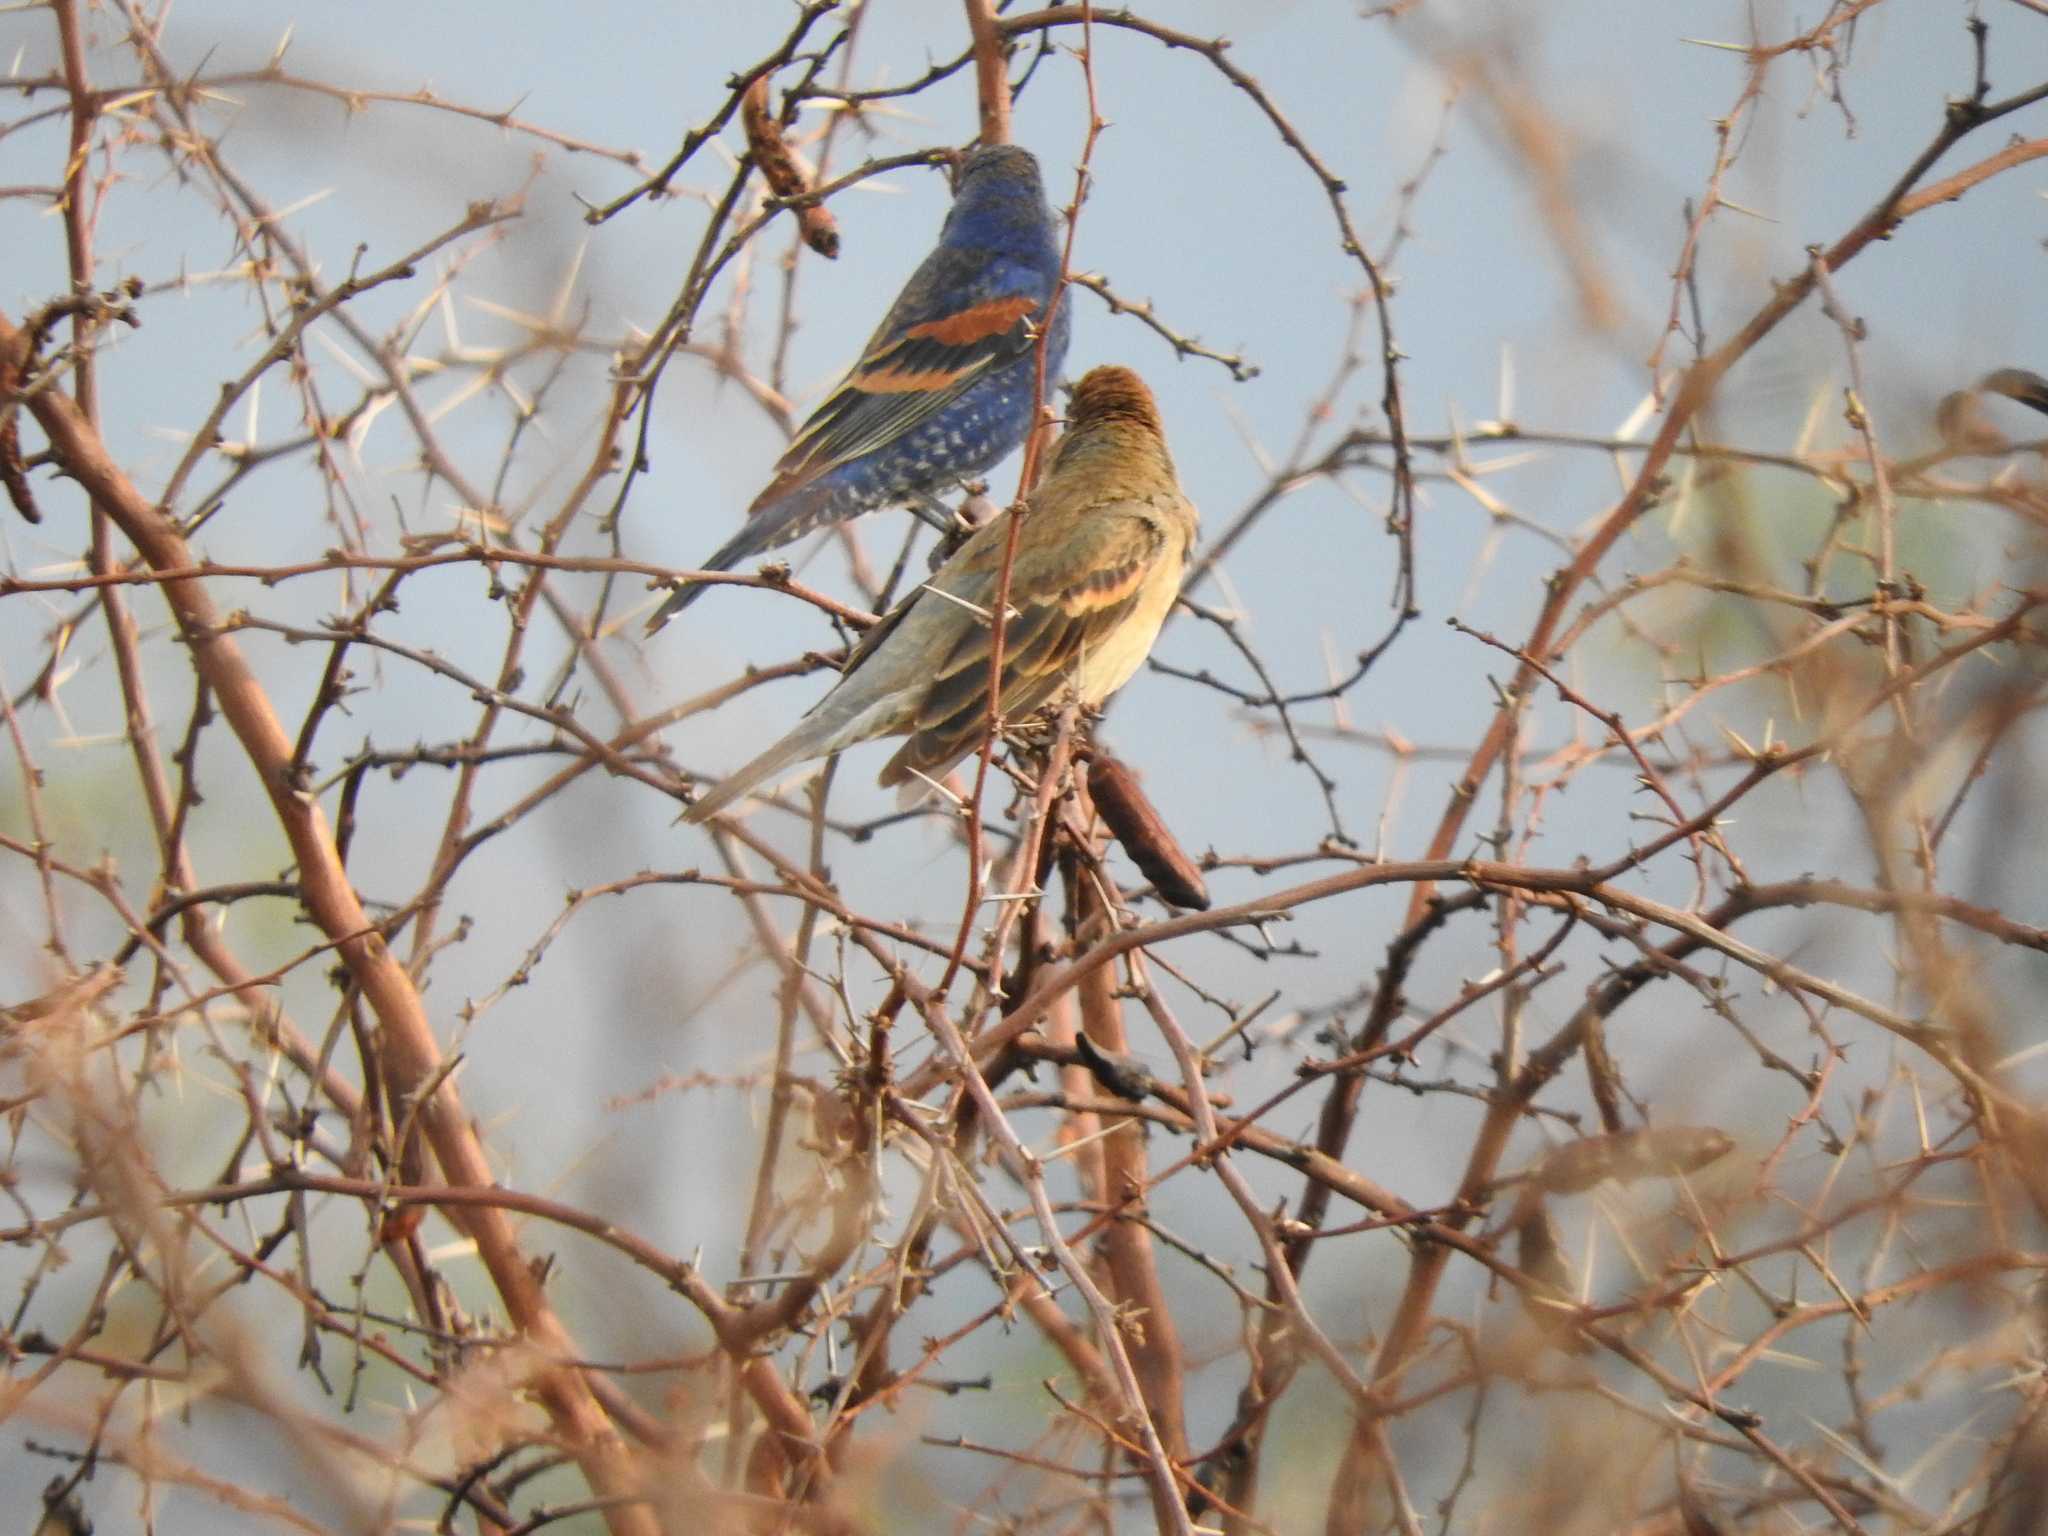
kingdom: Animalia
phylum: Chordata
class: Aves
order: Passeriformes
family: Cardinalidae
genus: Passerina
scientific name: Passerina caerulea
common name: Blue grosbeak
